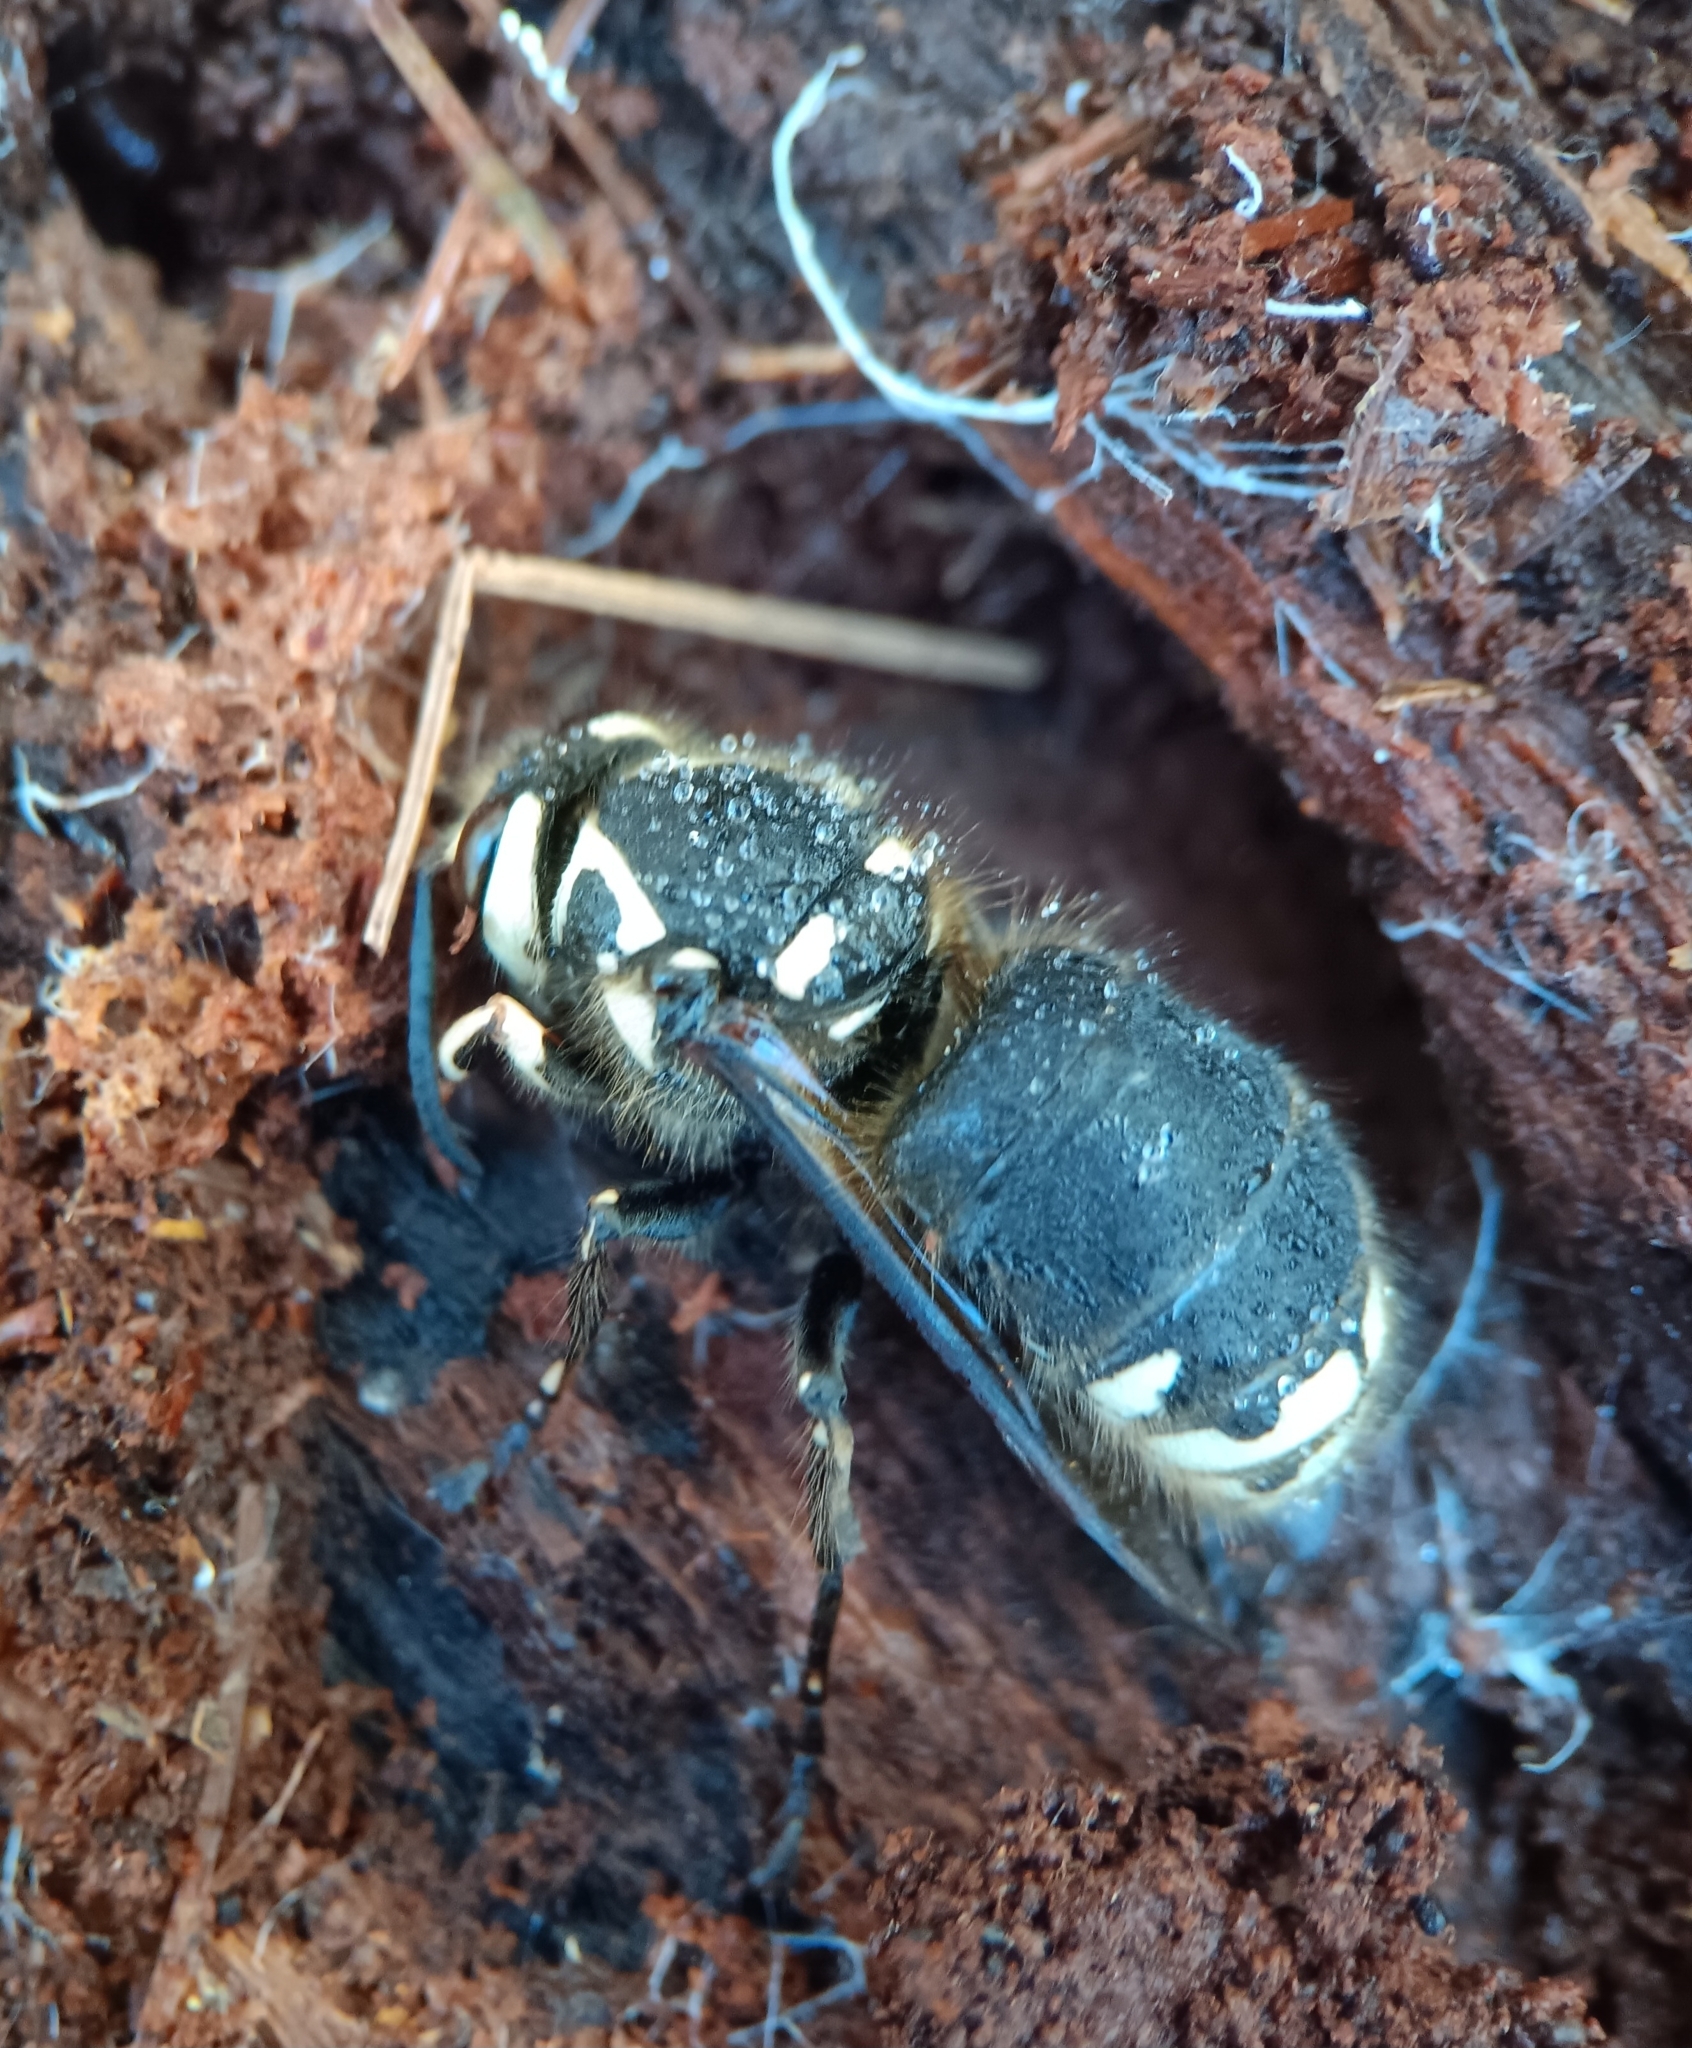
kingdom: Animalia
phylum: Arthropoda
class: Insecta
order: Hymenoptera
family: Vespidae
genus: Dolichovespula
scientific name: Dolichovespula maculata
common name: Bald-faced hornet
